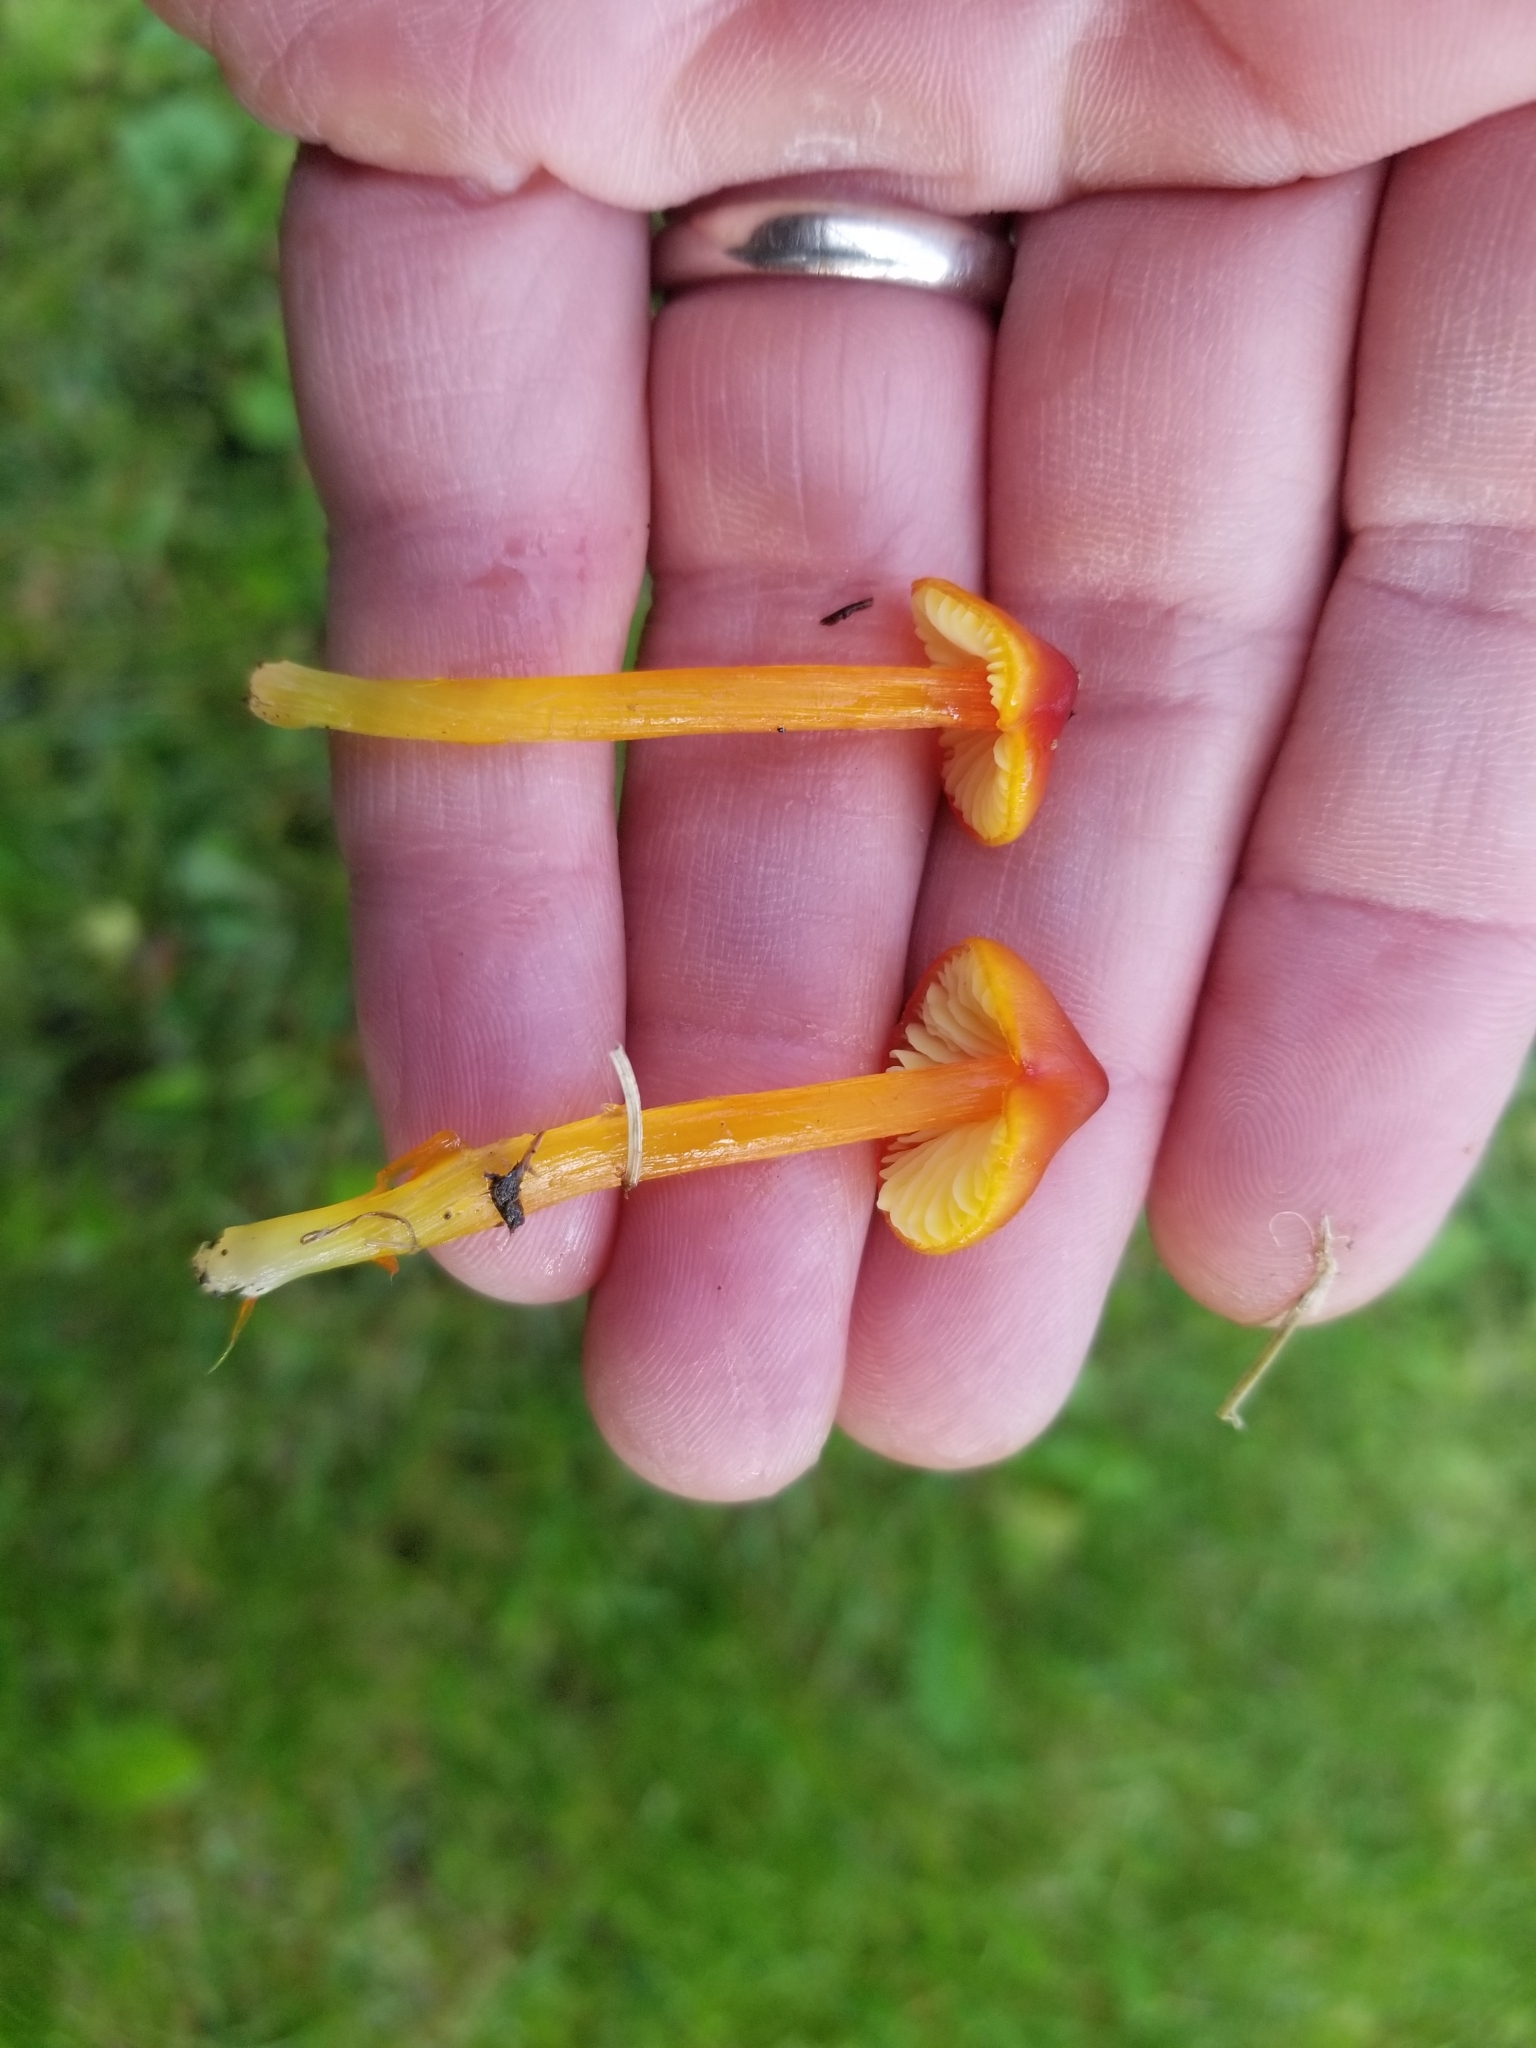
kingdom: Fungi
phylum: Basidiomycota
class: Agaricomycetes
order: Agaricales
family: Hygrophoraceae
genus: Hygrocybe
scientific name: Hygrocybe conica
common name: Blackening wax-cap
